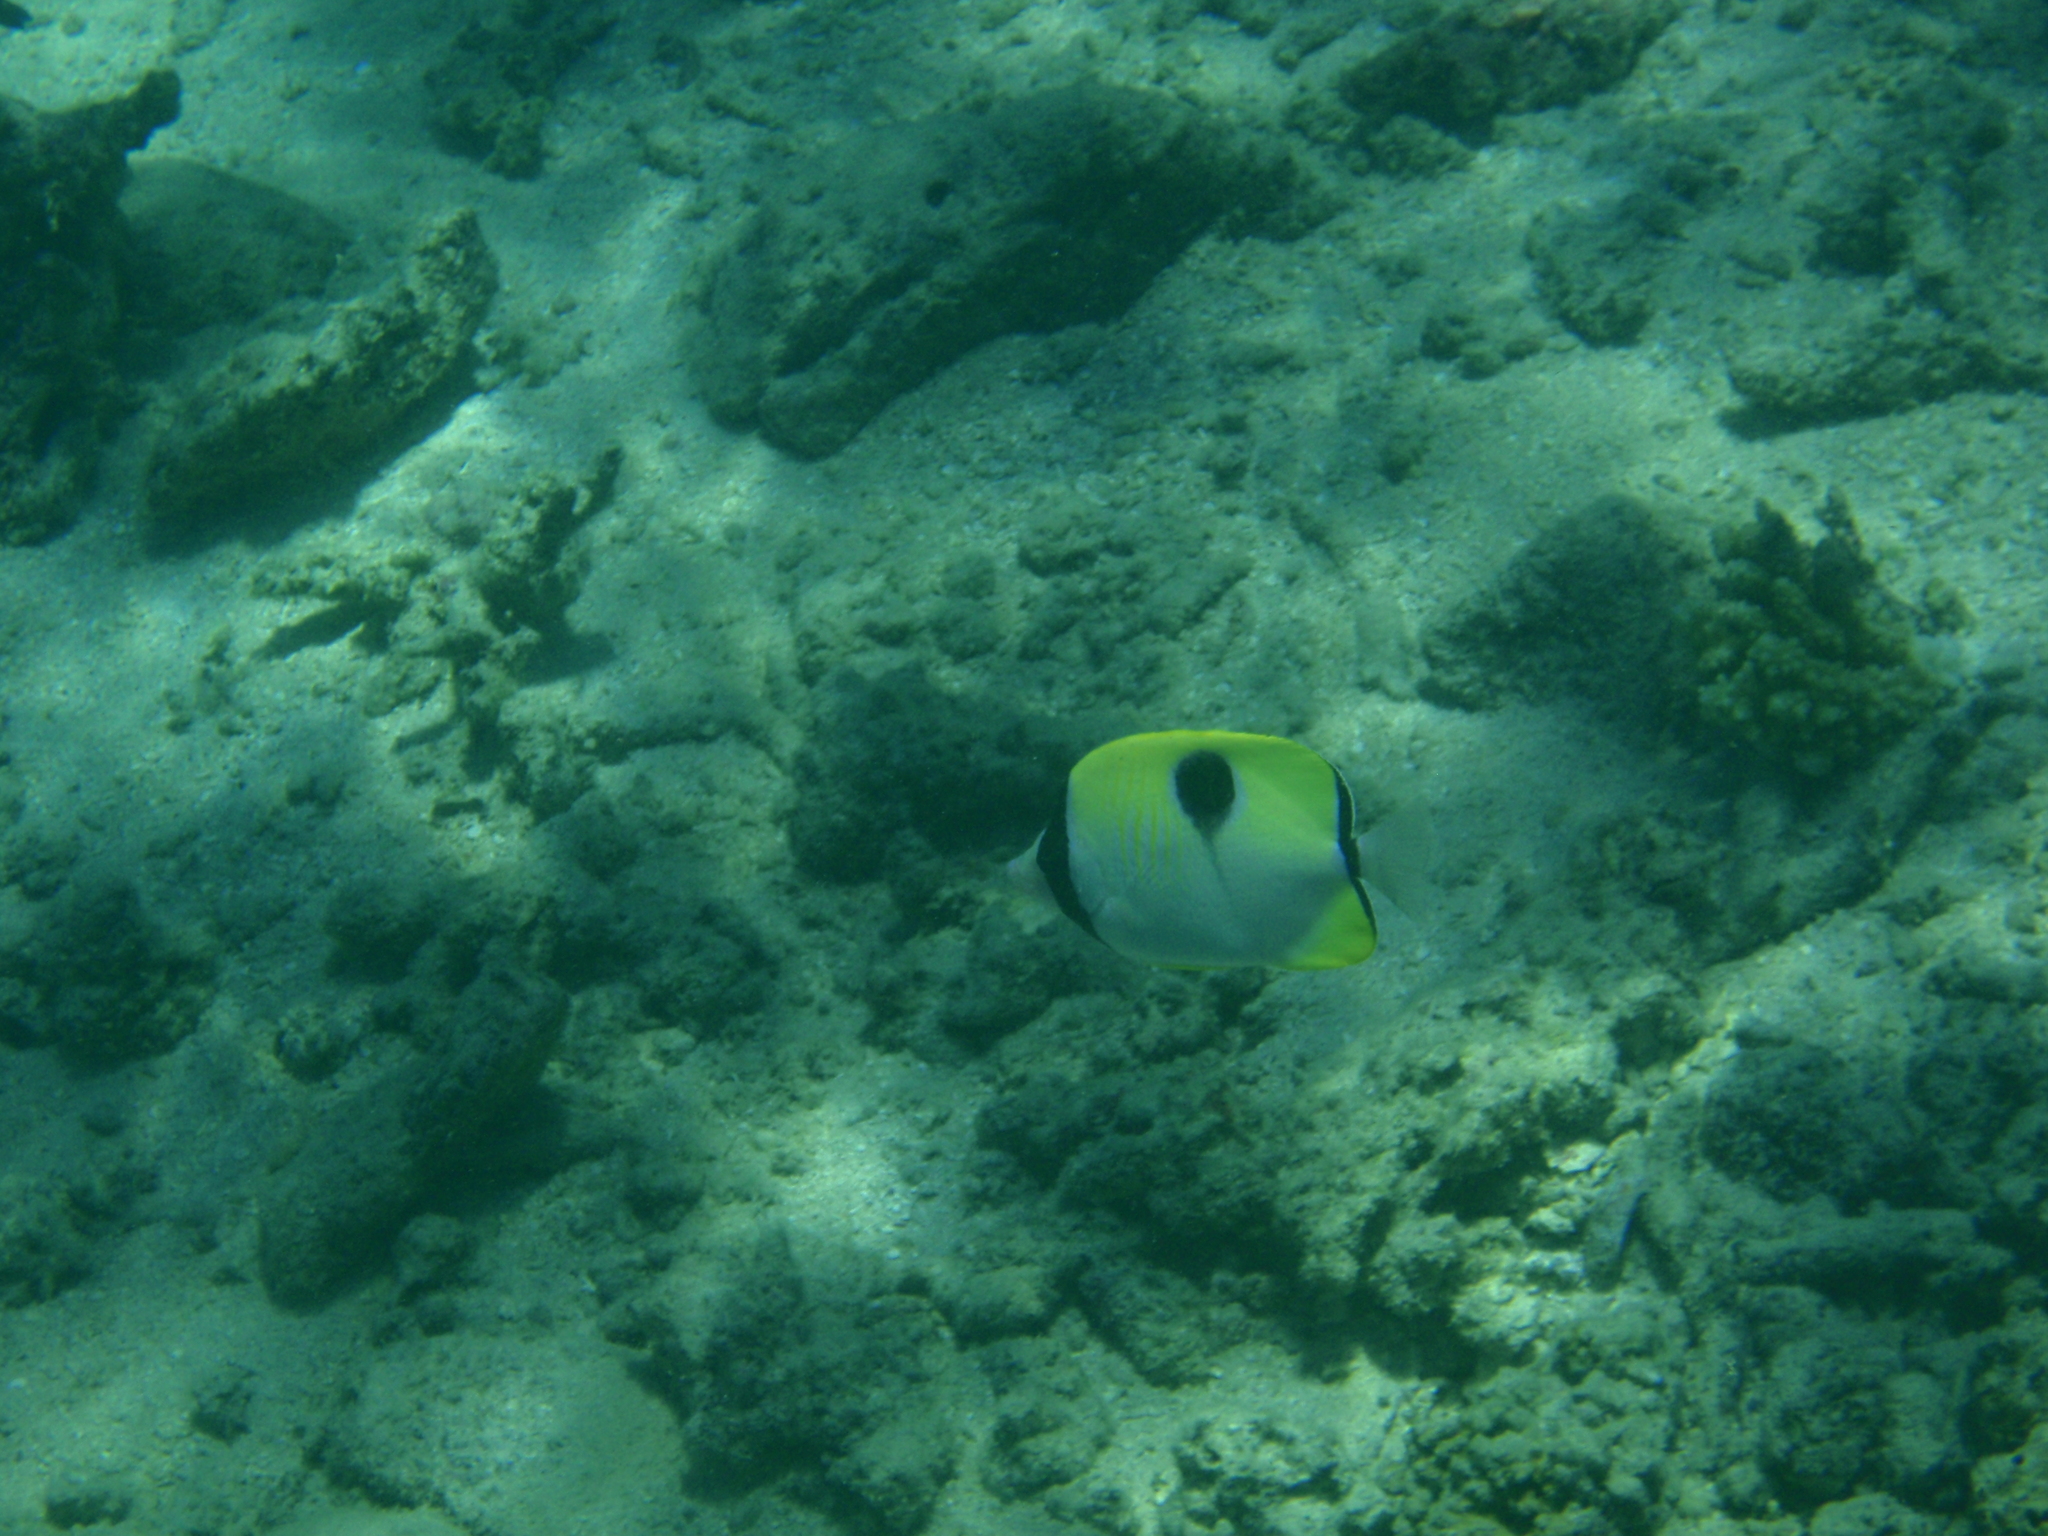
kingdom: Animalia
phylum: Chordata
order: Perciformes
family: Chaetodontidae
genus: Chaetodon
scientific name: Chaetodon unimaculatus
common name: Teardrop butterflyfish
